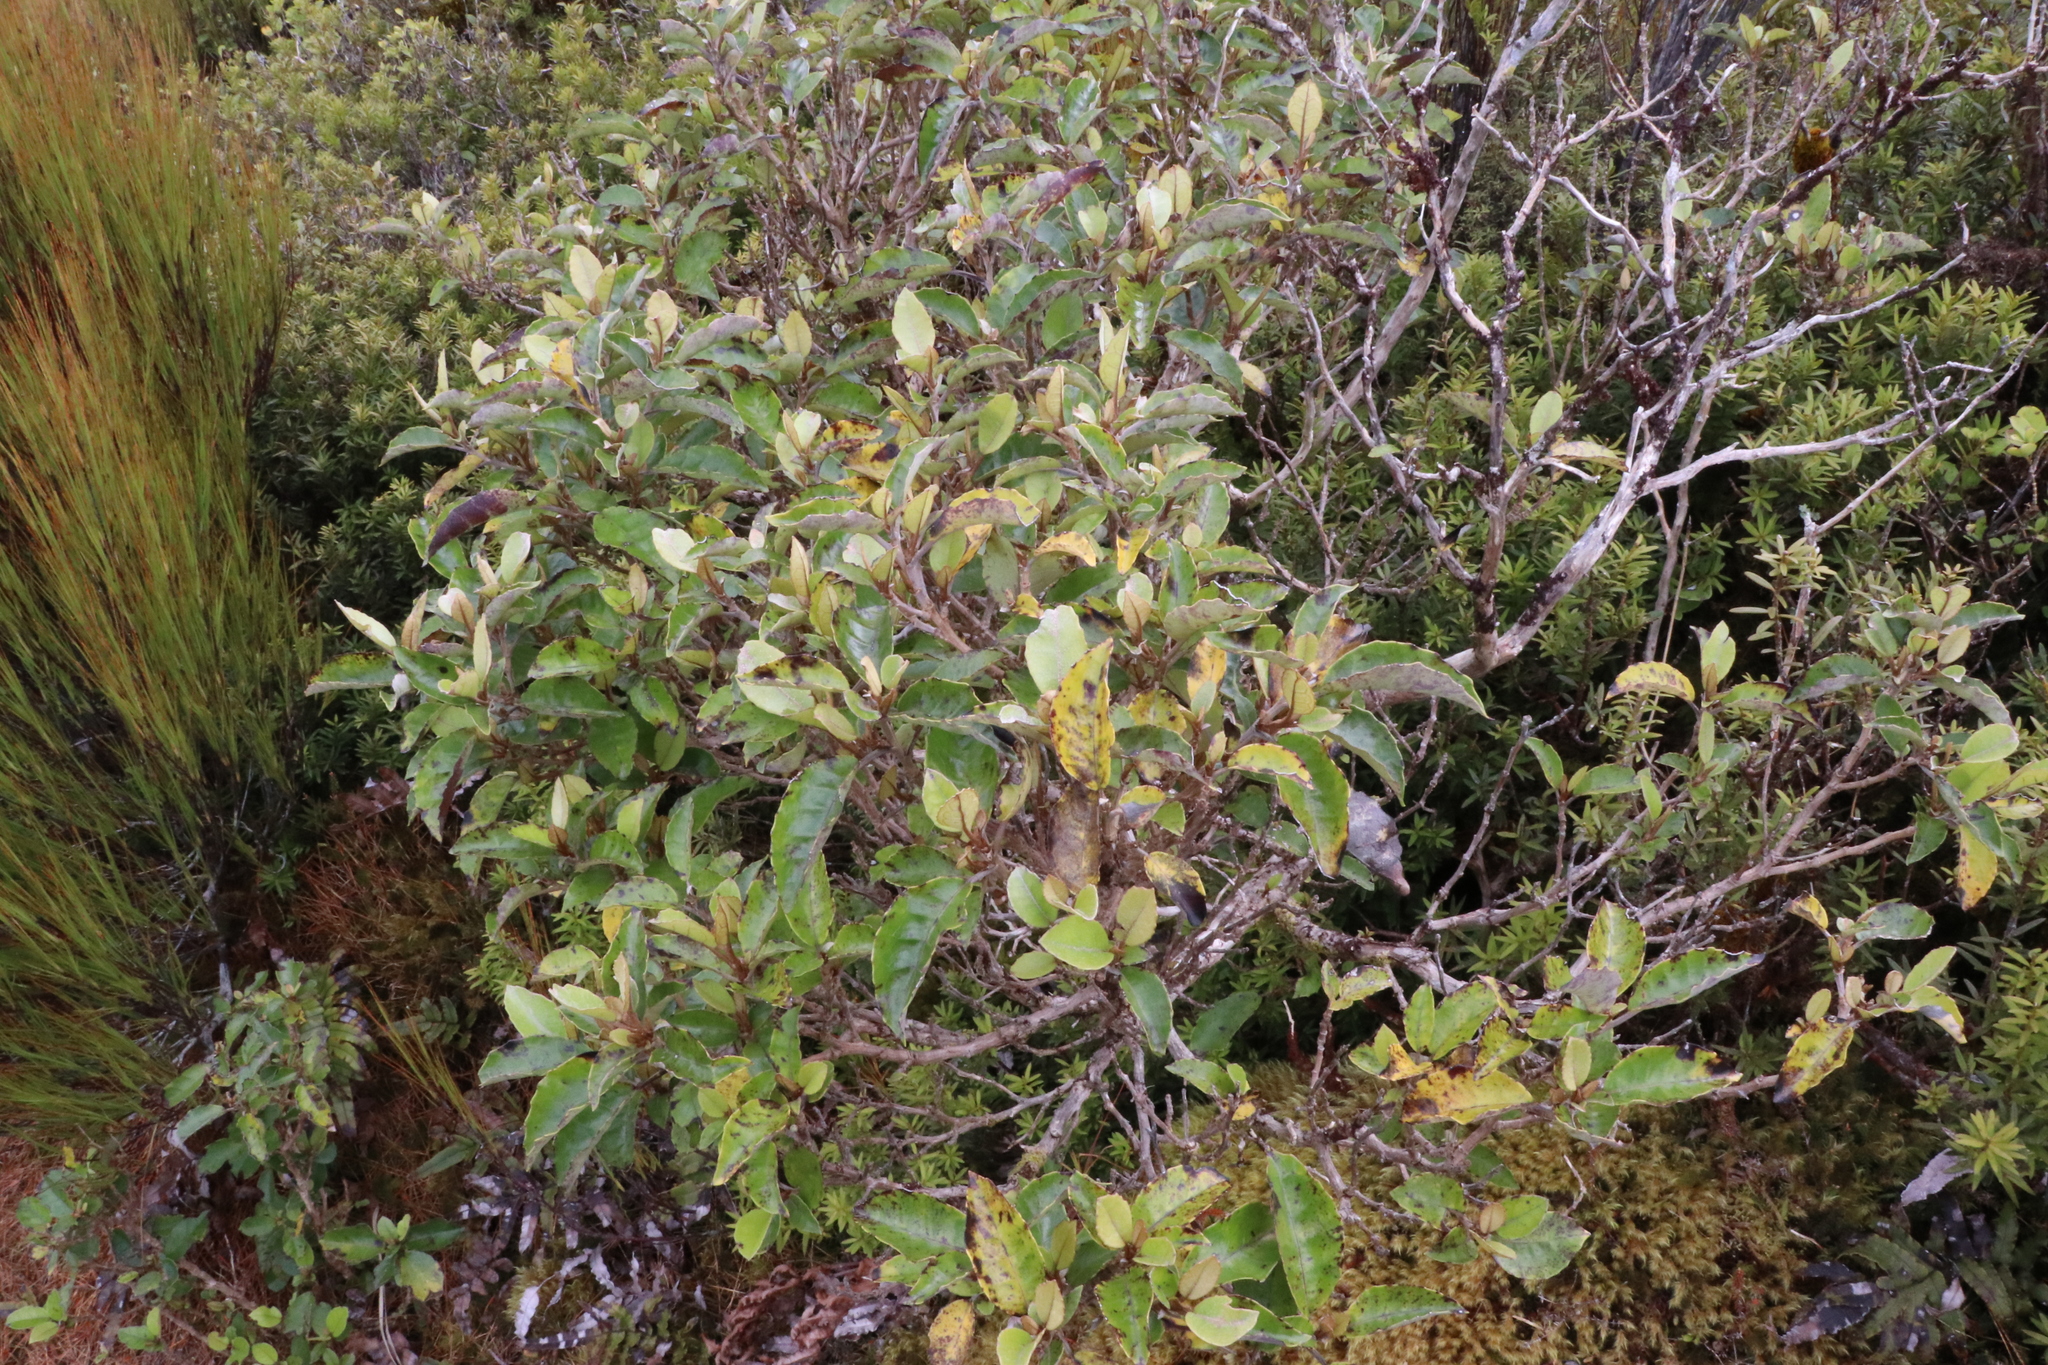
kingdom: Plantae
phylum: Tracheophyta
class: Magnoliopsida
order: Asterales
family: Asteraceae
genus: Olearia
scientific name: Olearia arborescens
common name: Glossy tree daisy
